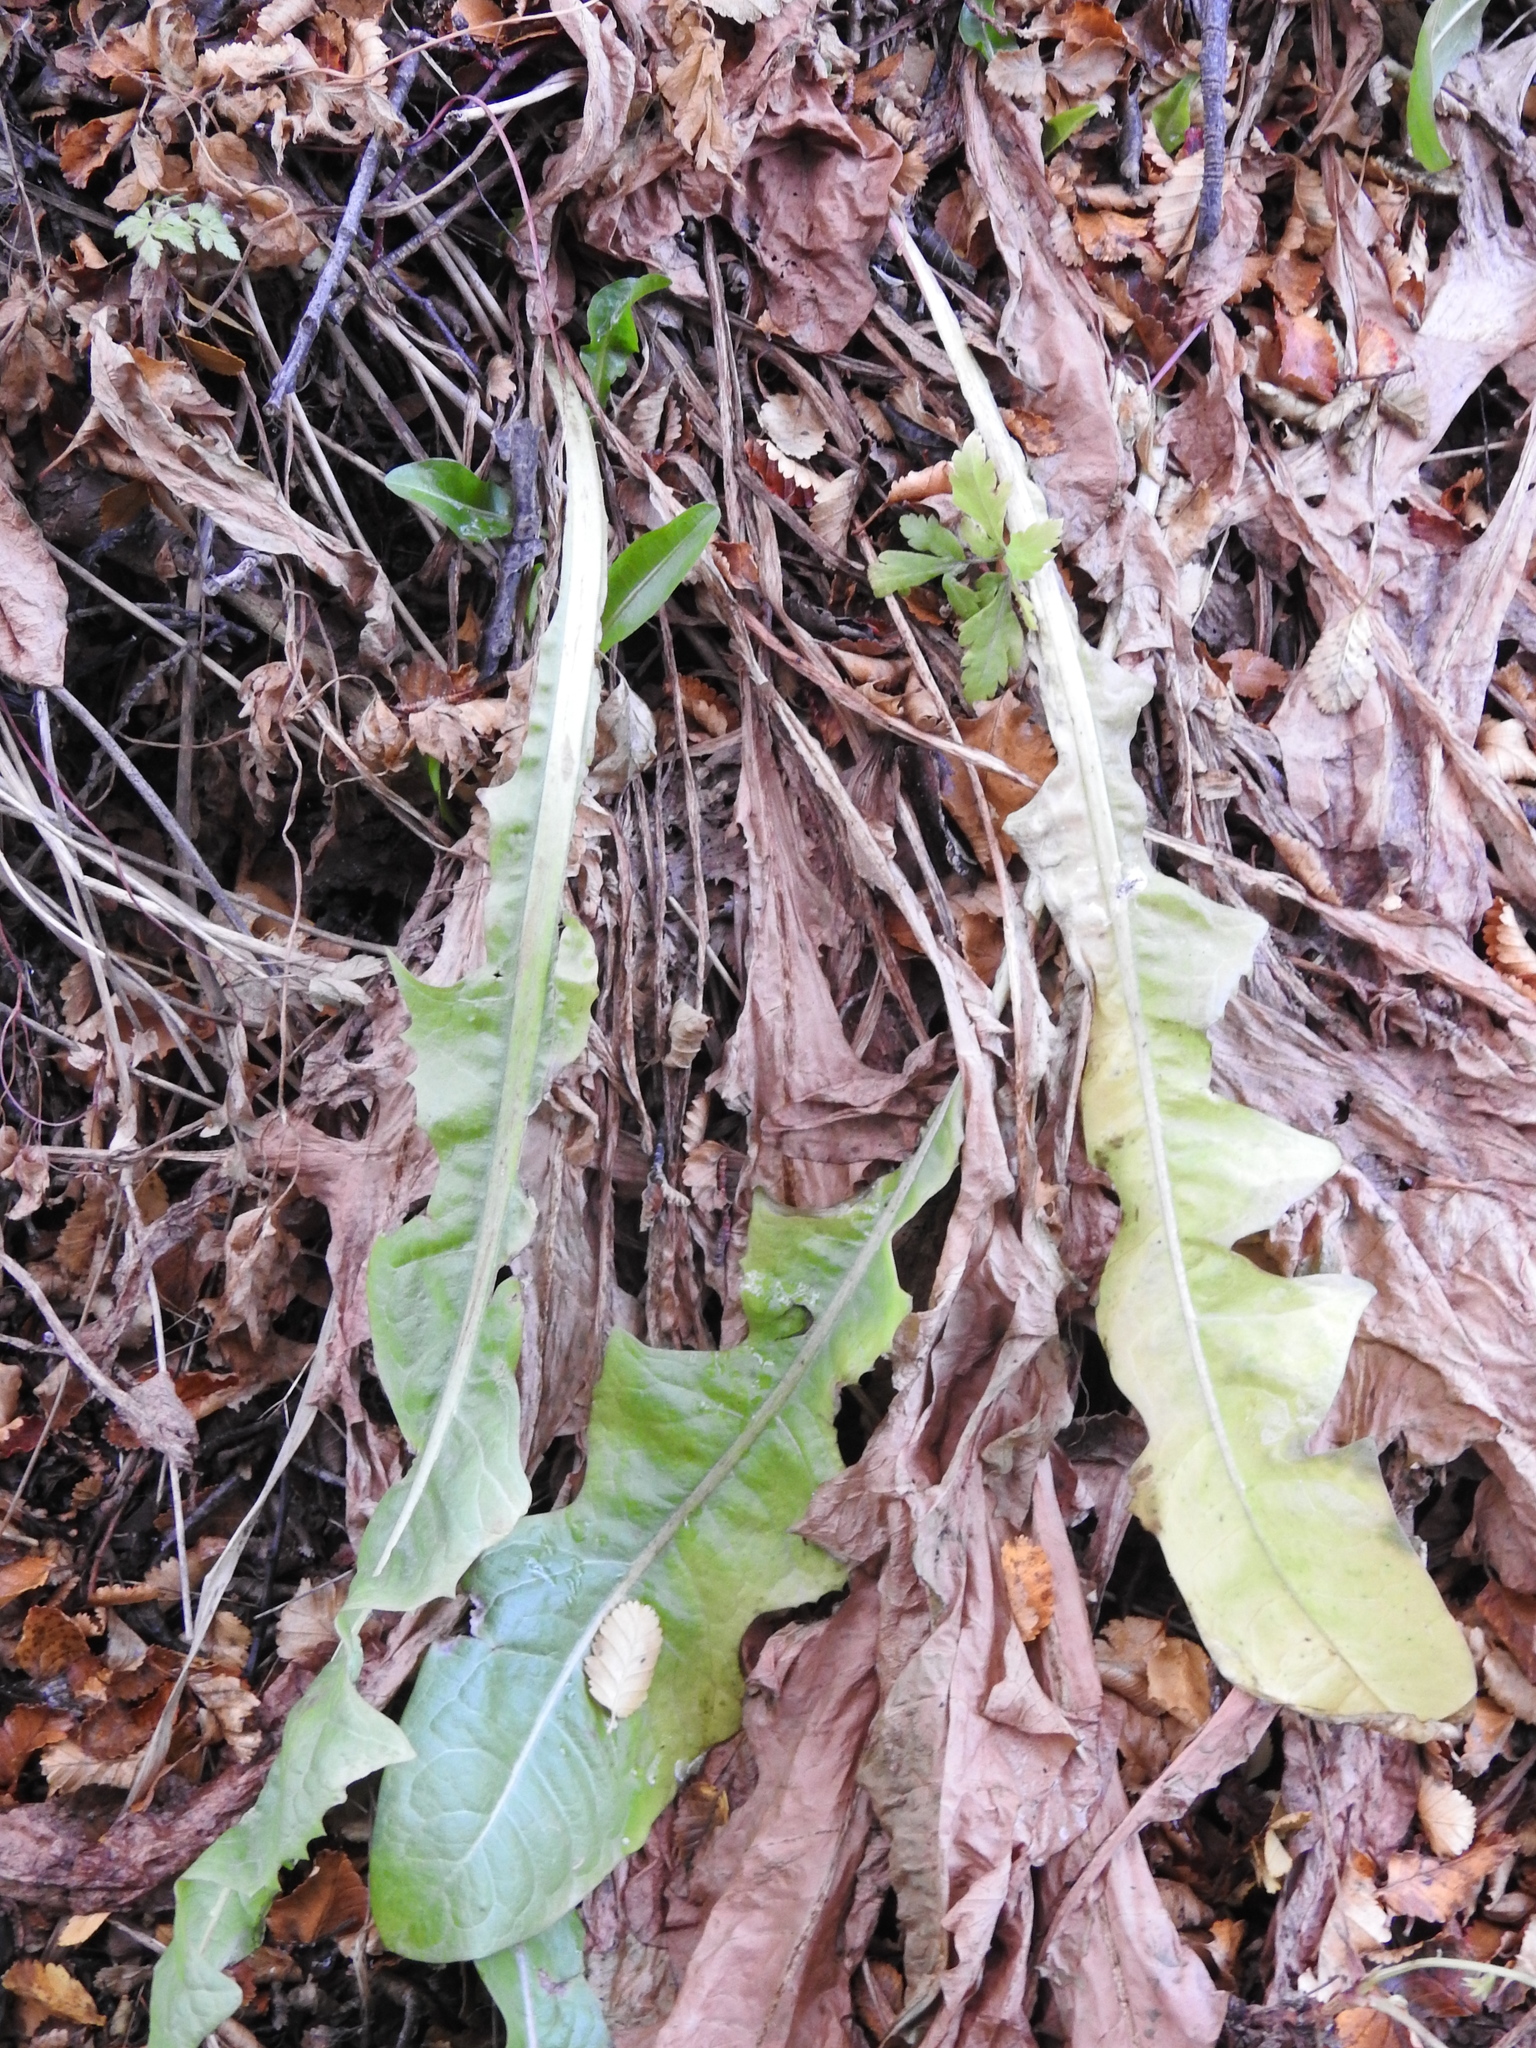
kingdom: Plantae
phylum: Tracheophyta
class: Magnoliopsida
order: Asterales
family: Asteraceae
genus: Taraxacum
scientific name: Taraxacum officinale
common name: Common dandelion
